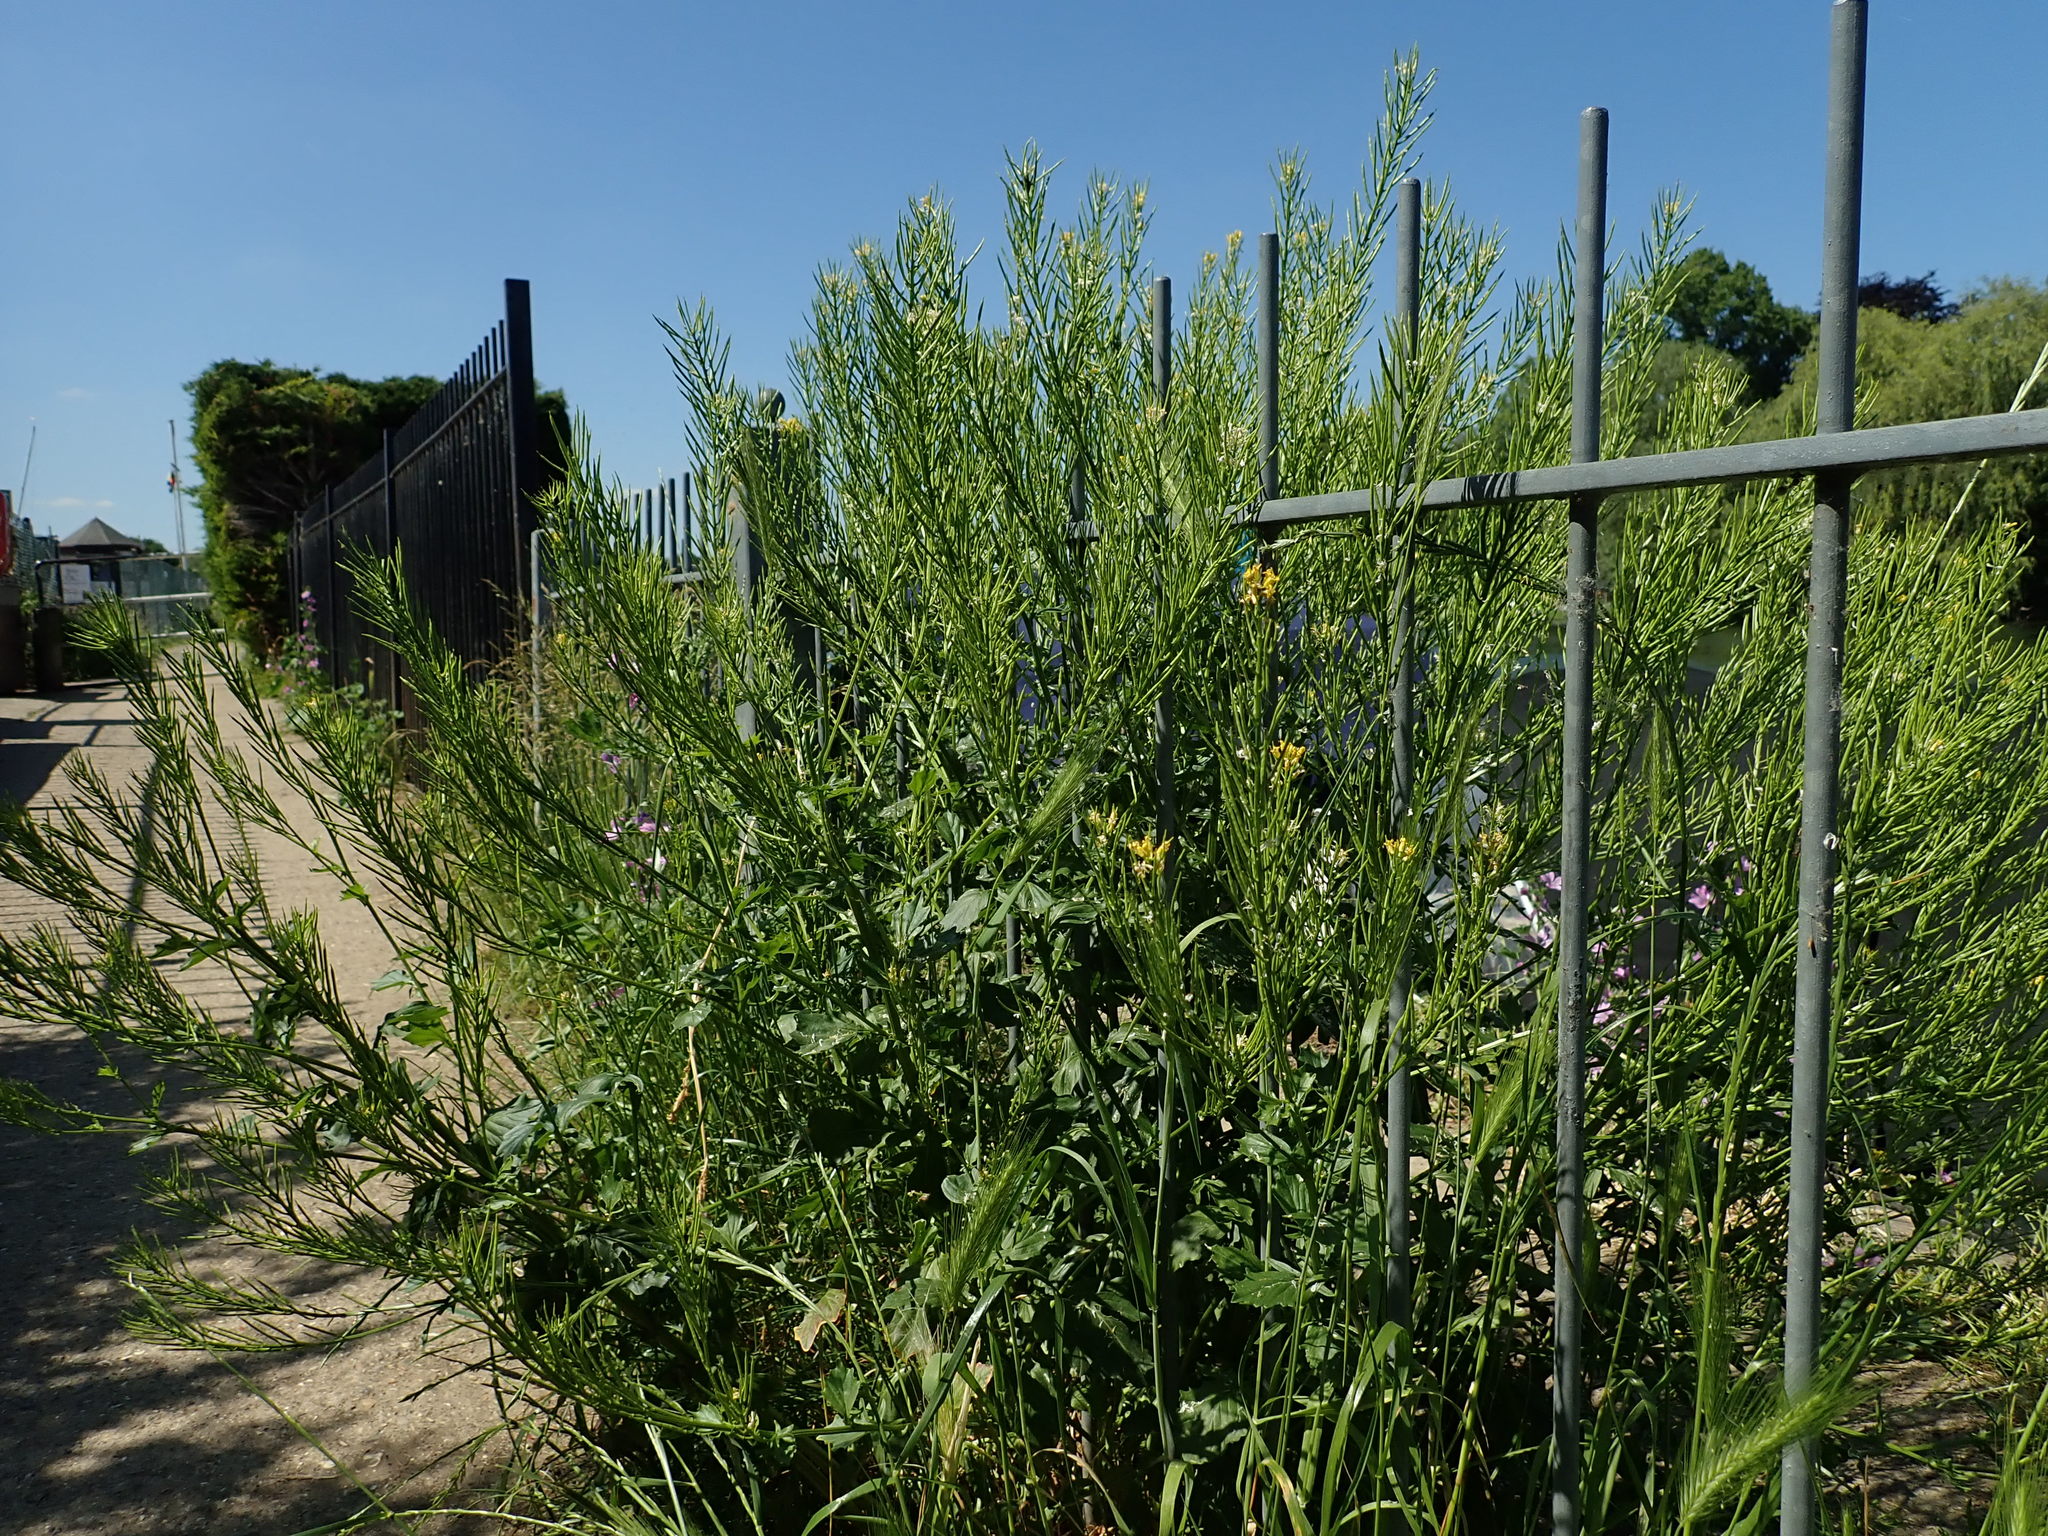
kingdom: Plantae
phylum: Tracheophyta
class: Magnoliopsida
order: Brassicales
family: Brassicaceae
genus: Barbarea
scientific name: Barbarea vulgaris
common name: Cressy-greens
